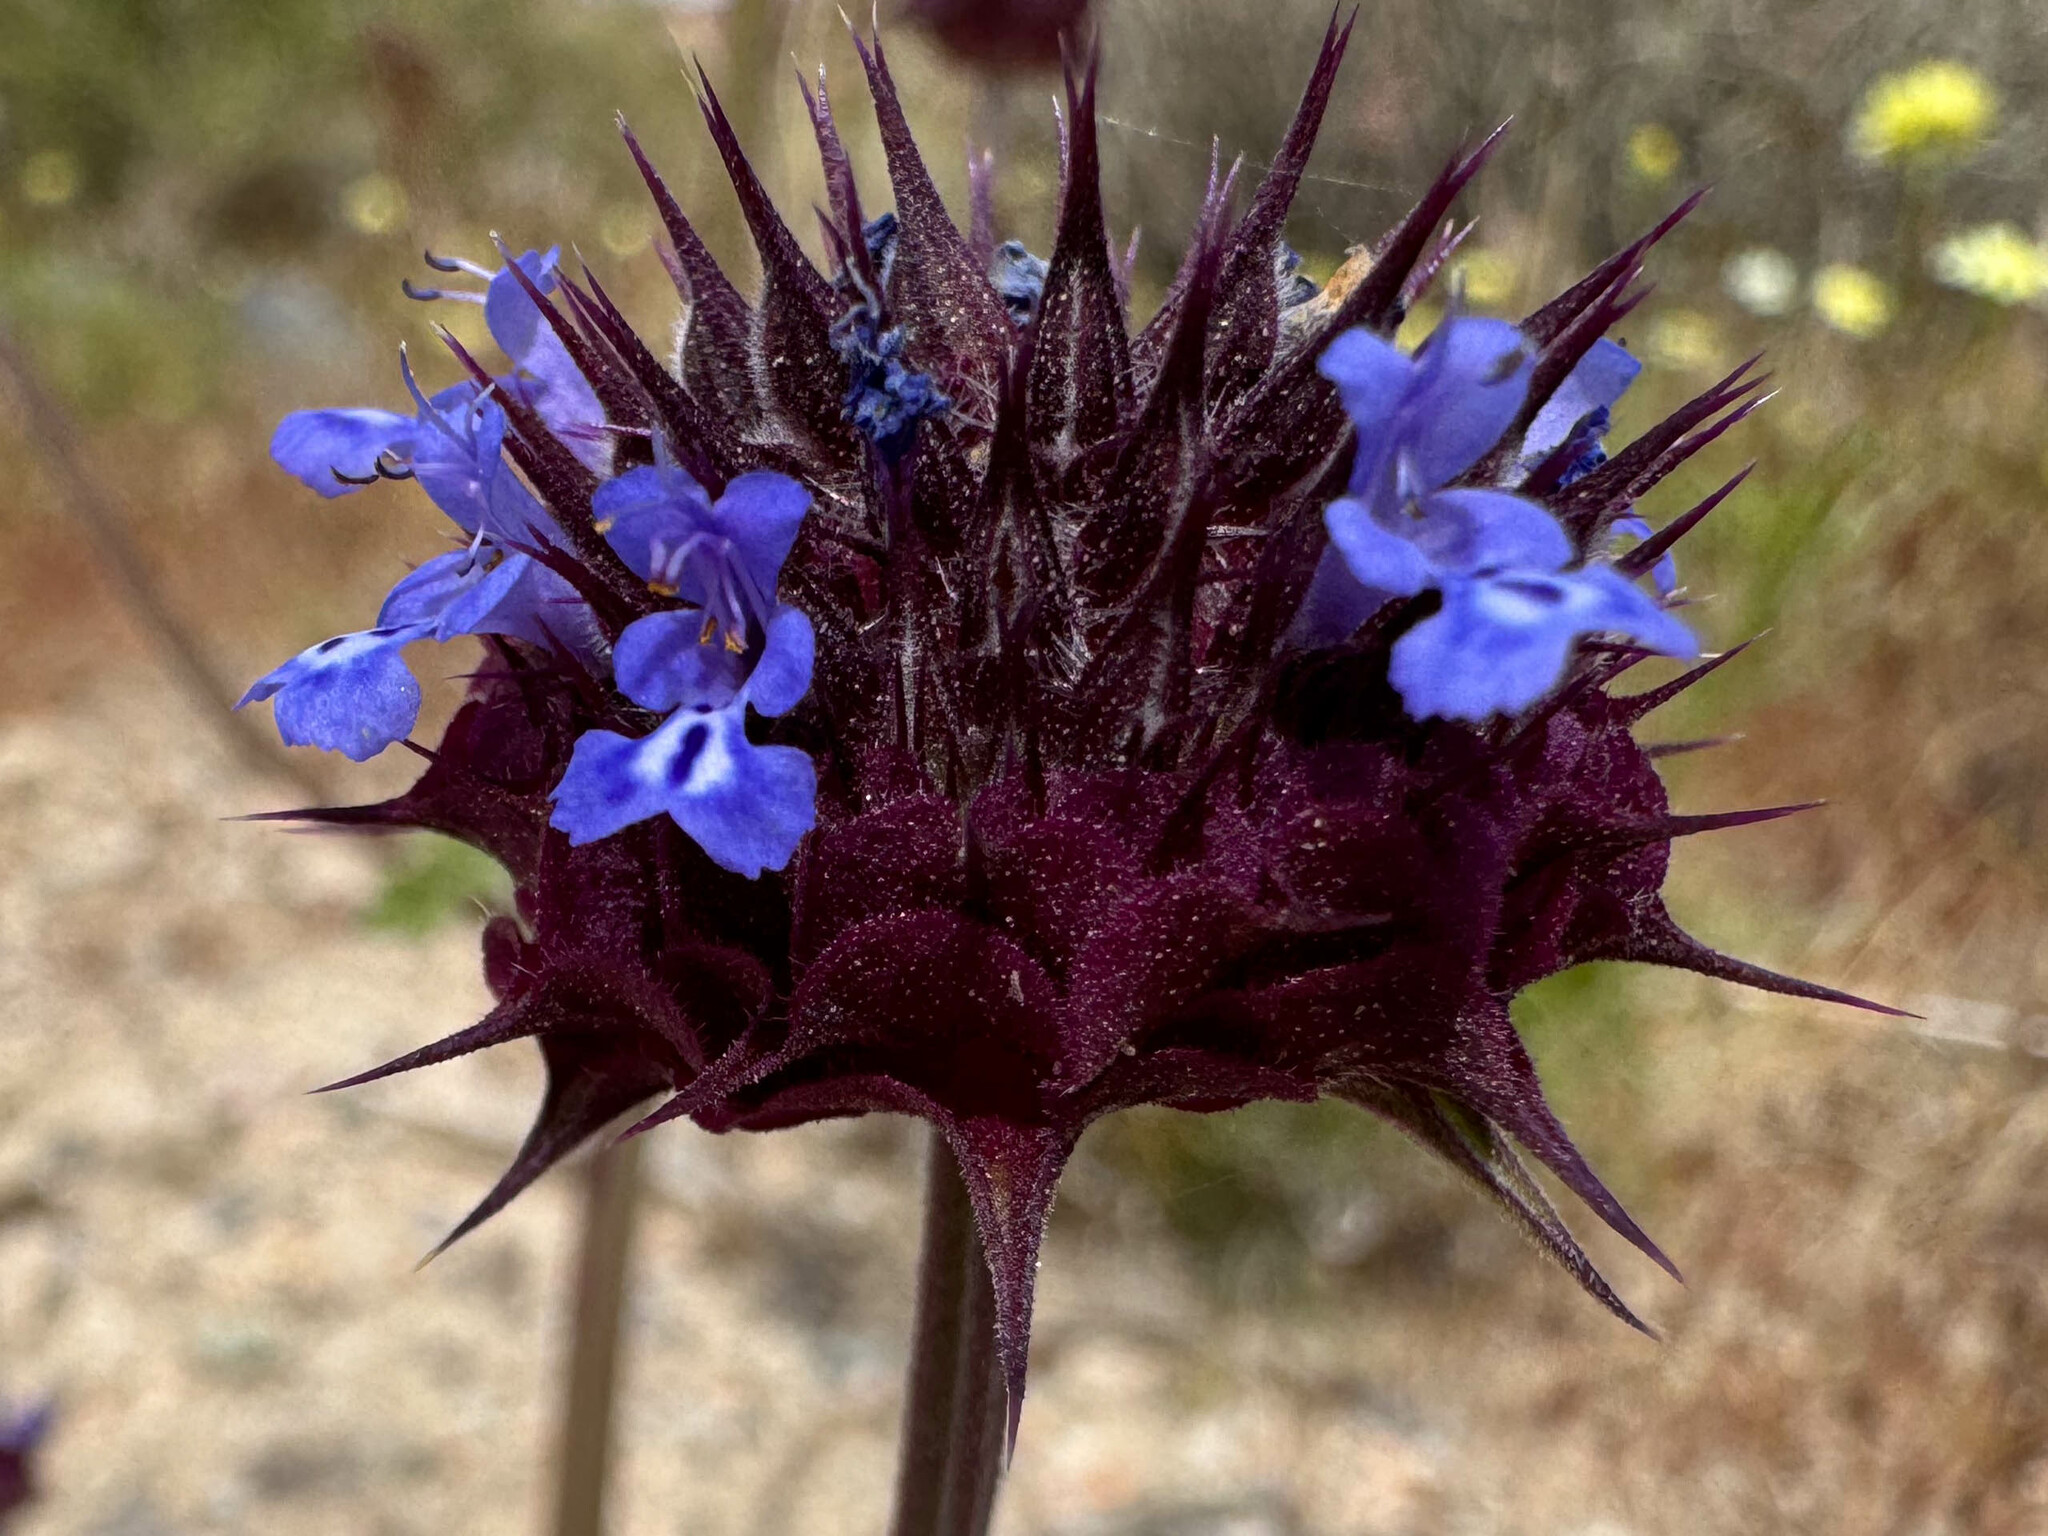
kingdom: Plantae
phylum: Tracheophyta
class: Magnoliopsida
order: Lamiales
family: Lamiaceae
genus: Salvia
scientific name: Salvia columbariae
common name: Chia
